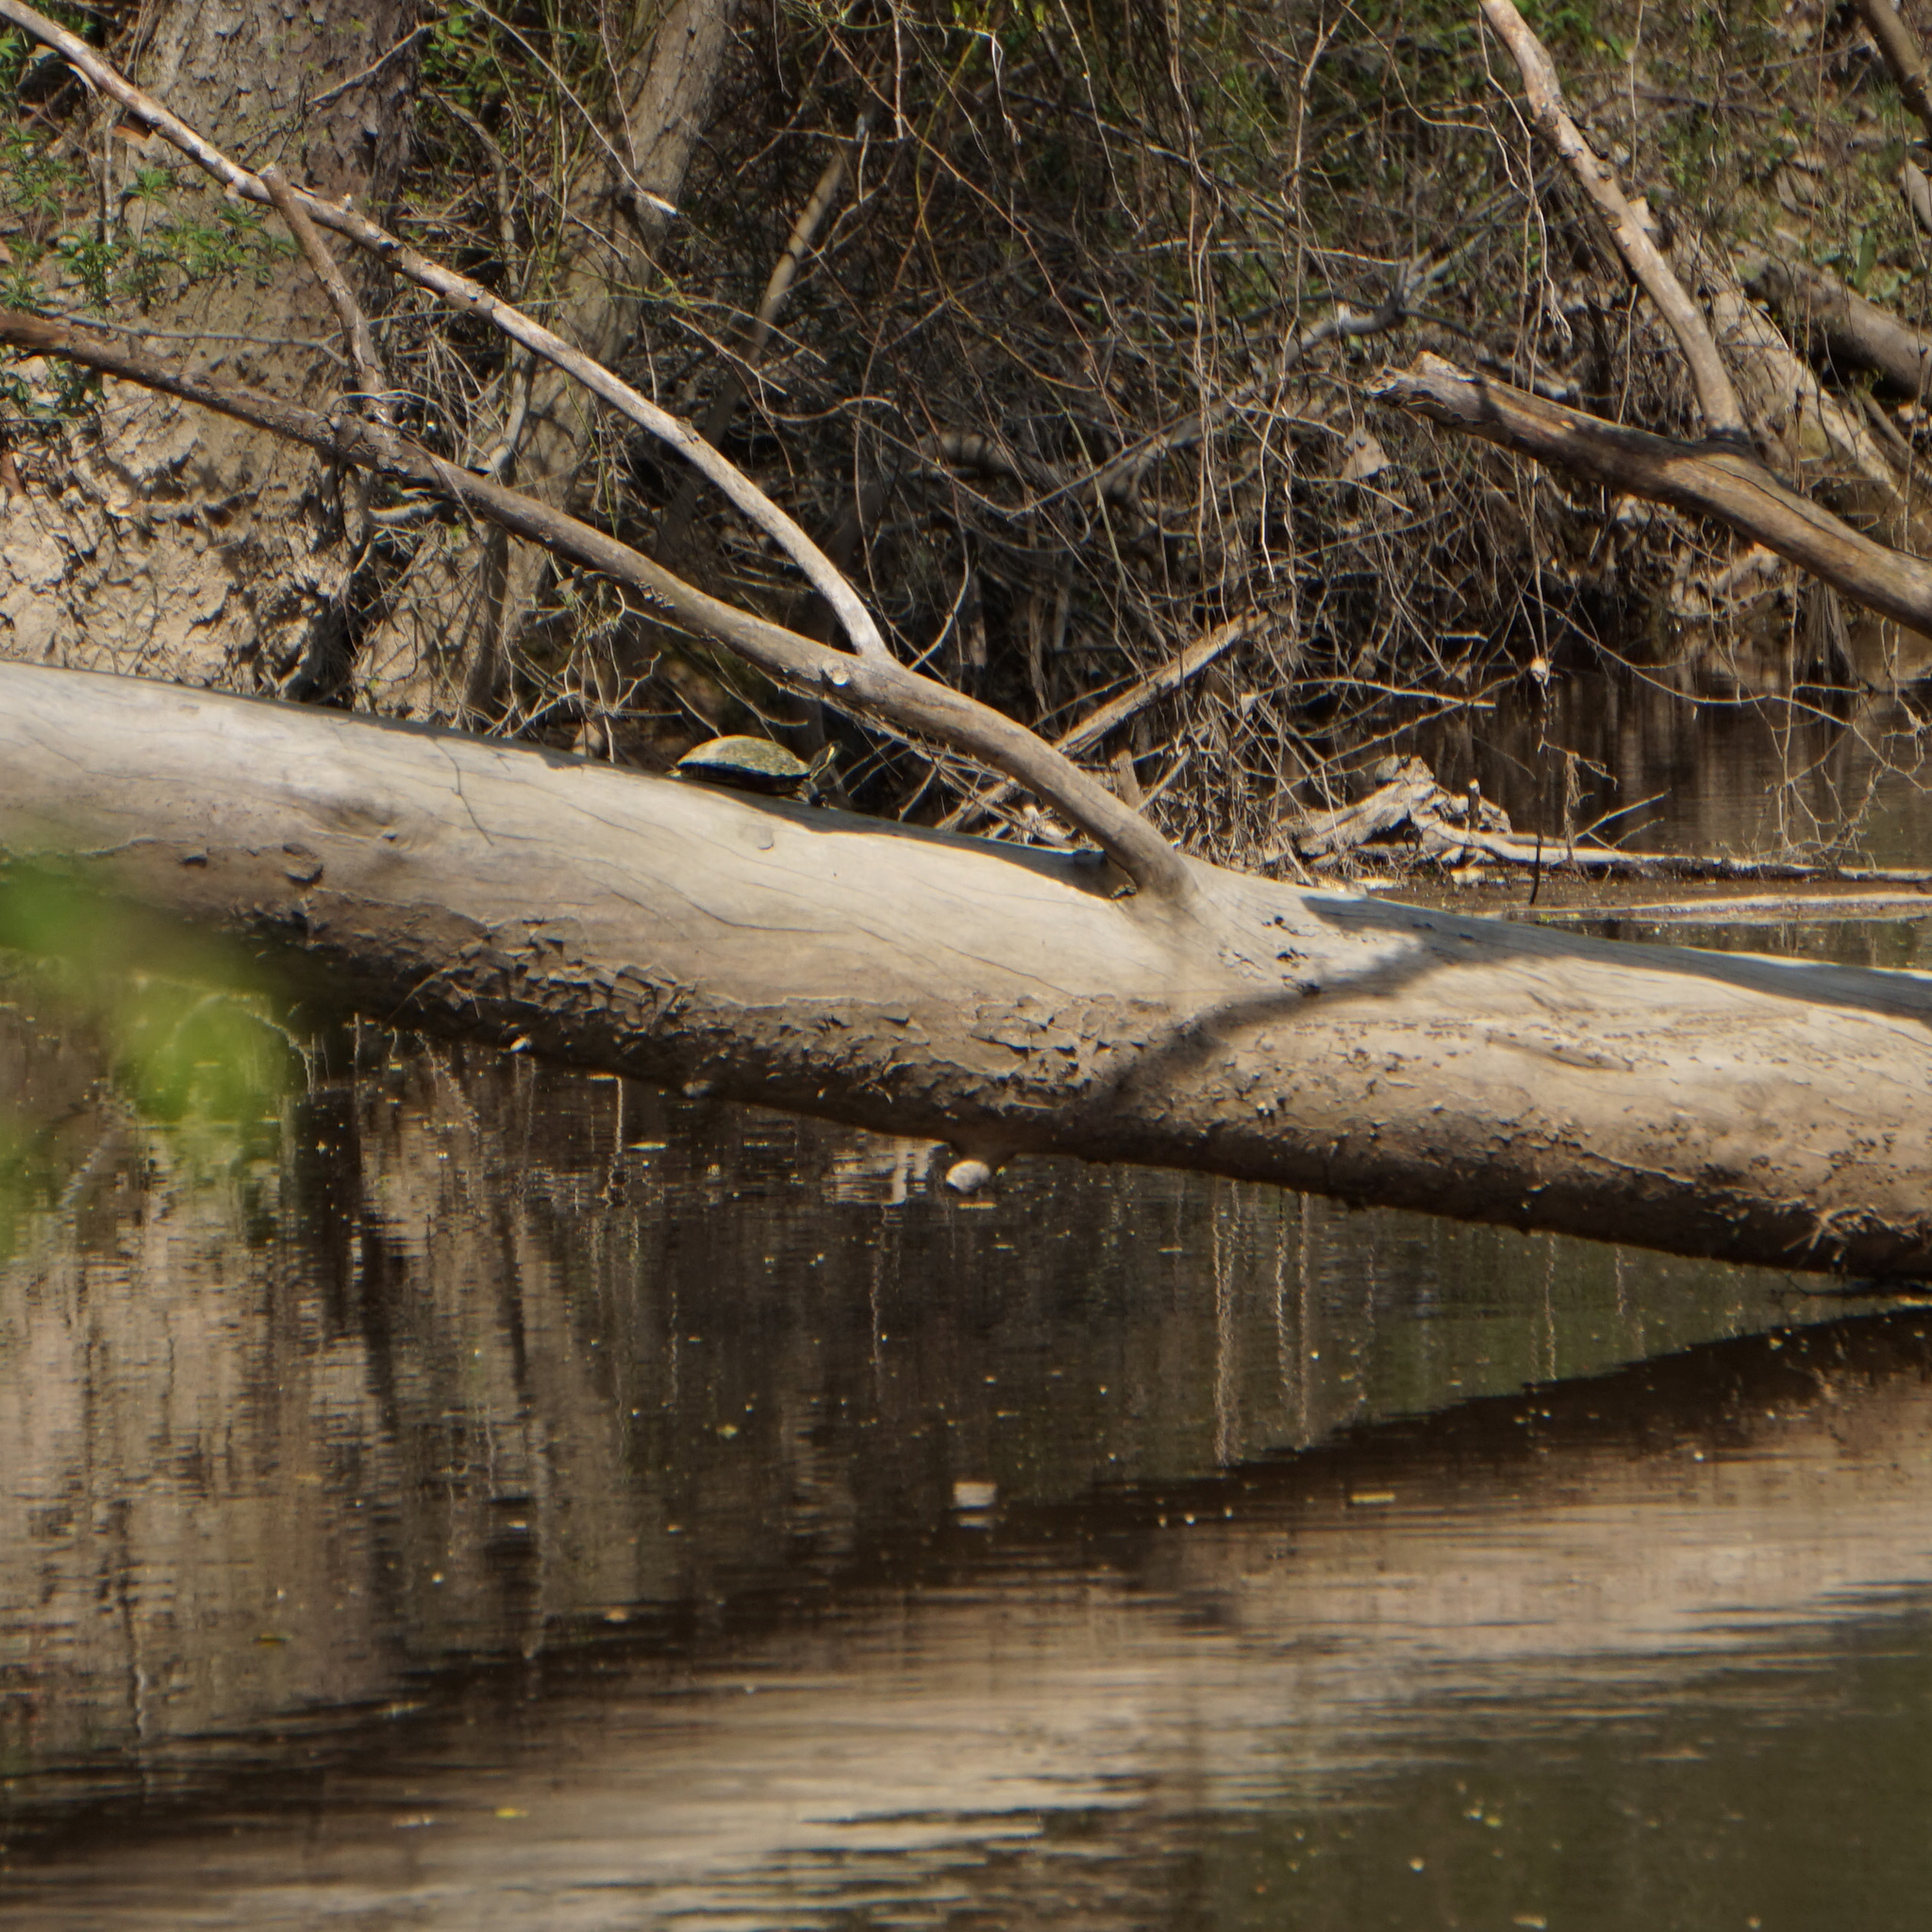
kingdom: Animalia
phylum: Chordata
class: Testudines
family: Emydidae
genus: Trachemys
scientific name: Trachemys scripta
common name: Slider
